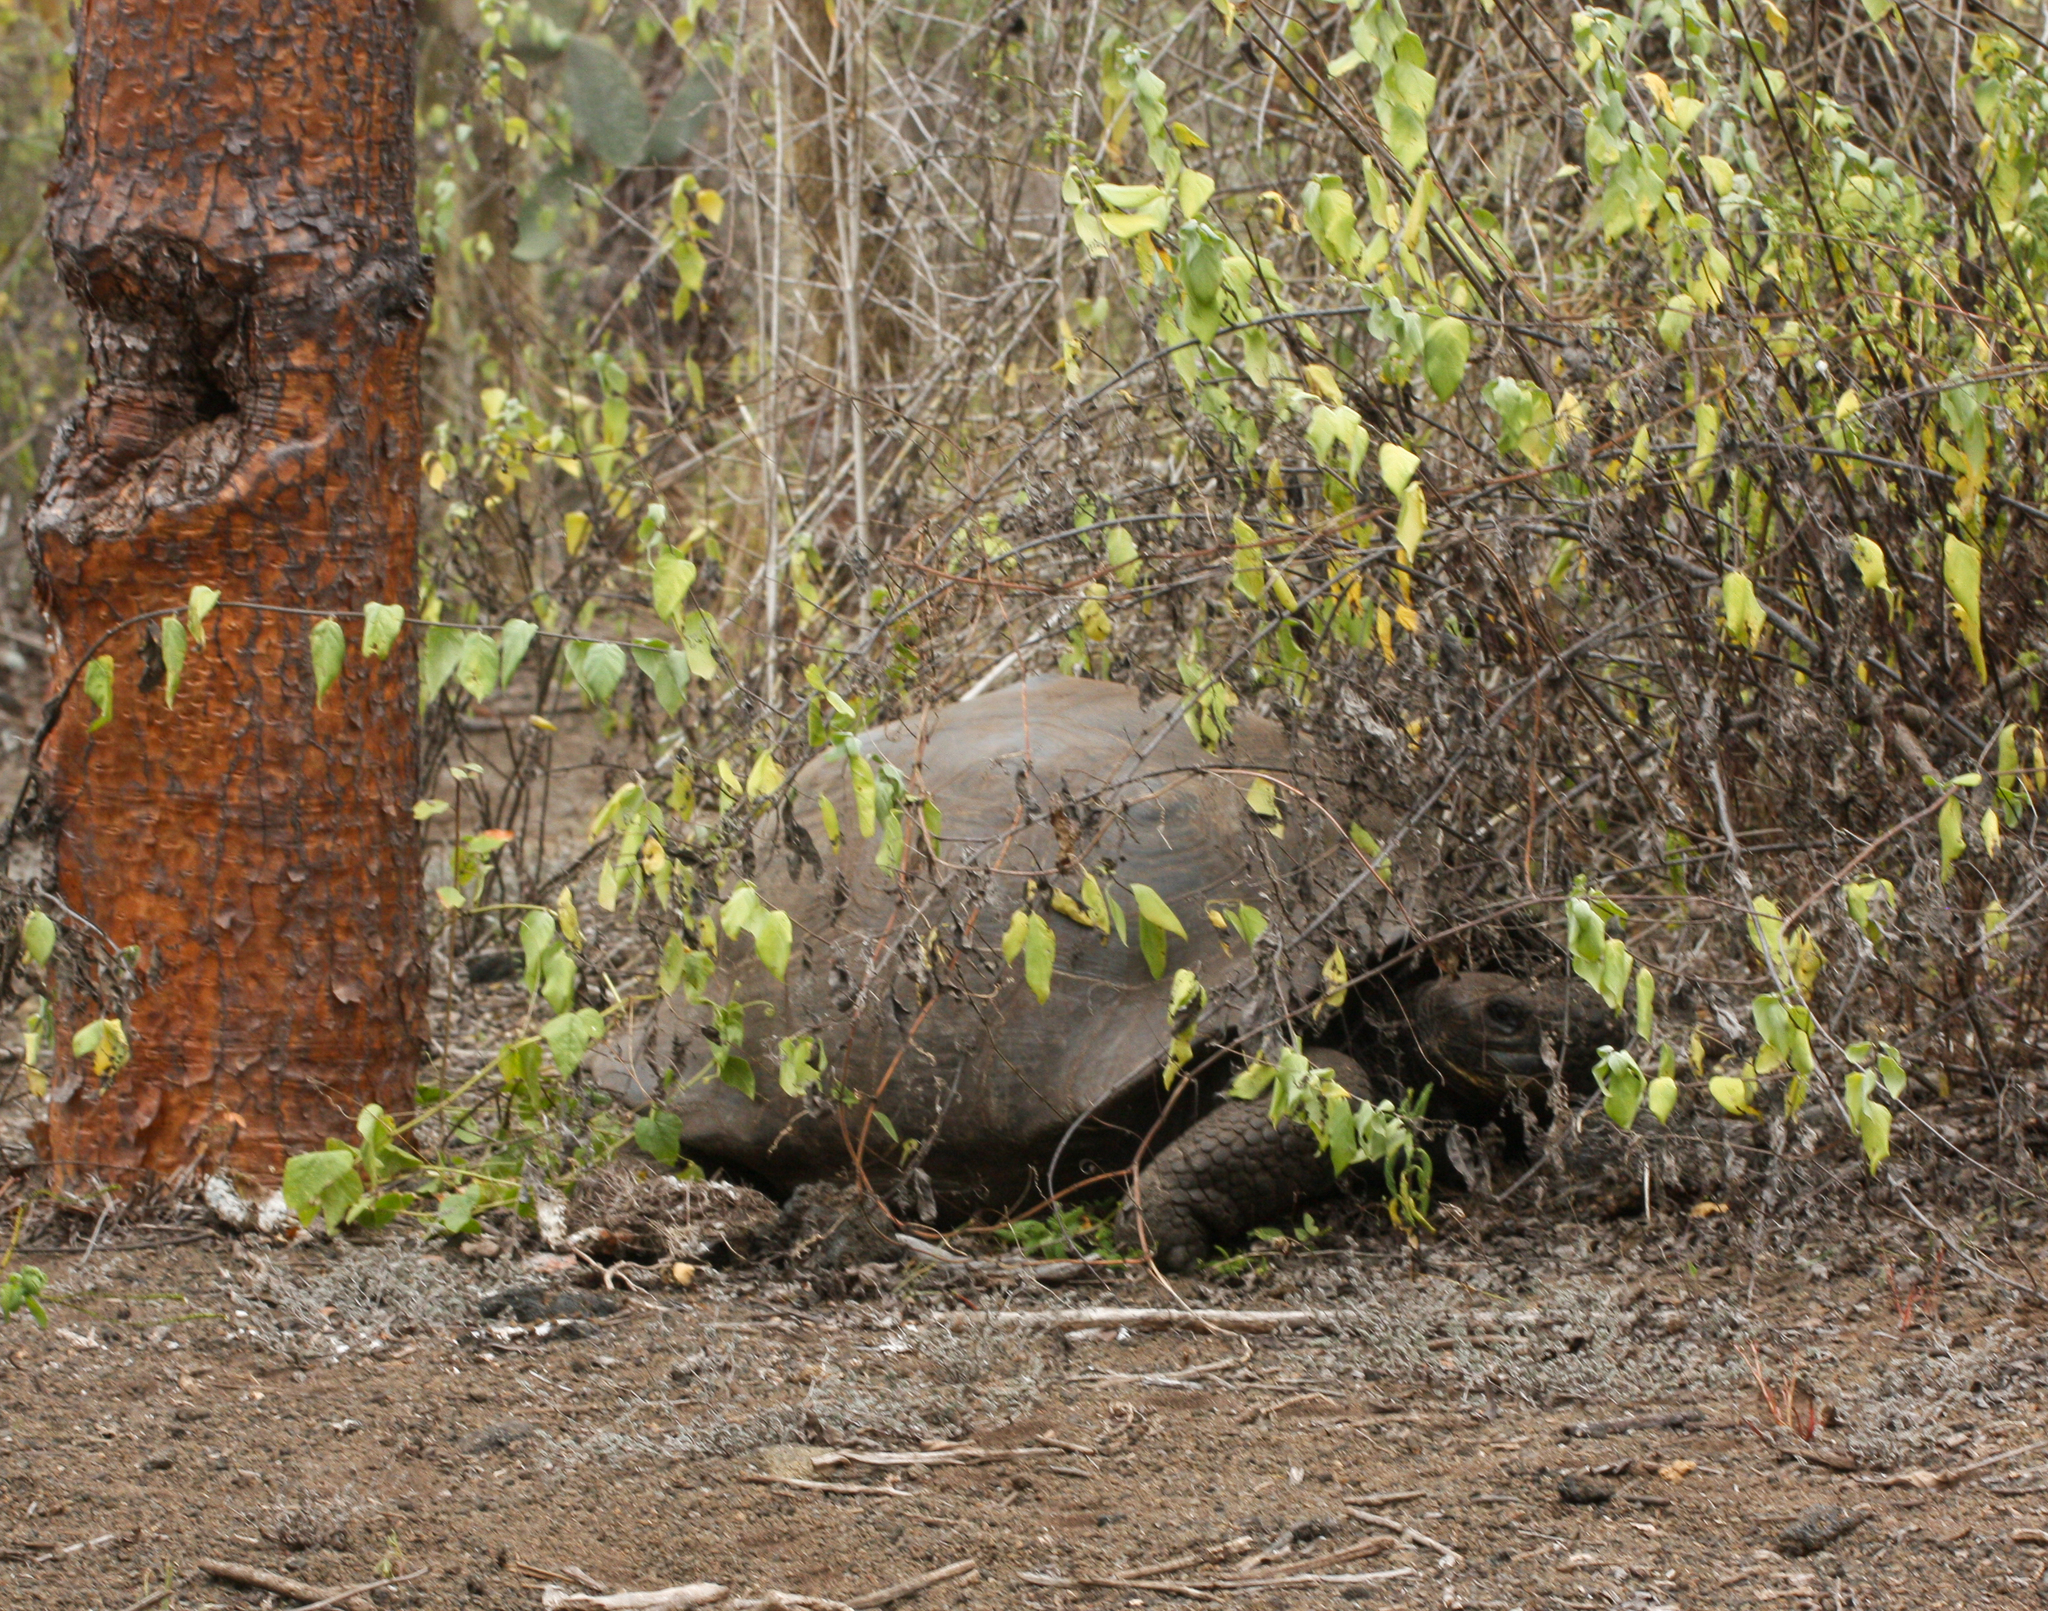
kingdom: Animalia
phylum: Chordata
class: Testudines
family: Testudinidae
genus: Chelonoidis
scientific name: Chelonoidis niger
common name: Charles island giant tortoise
